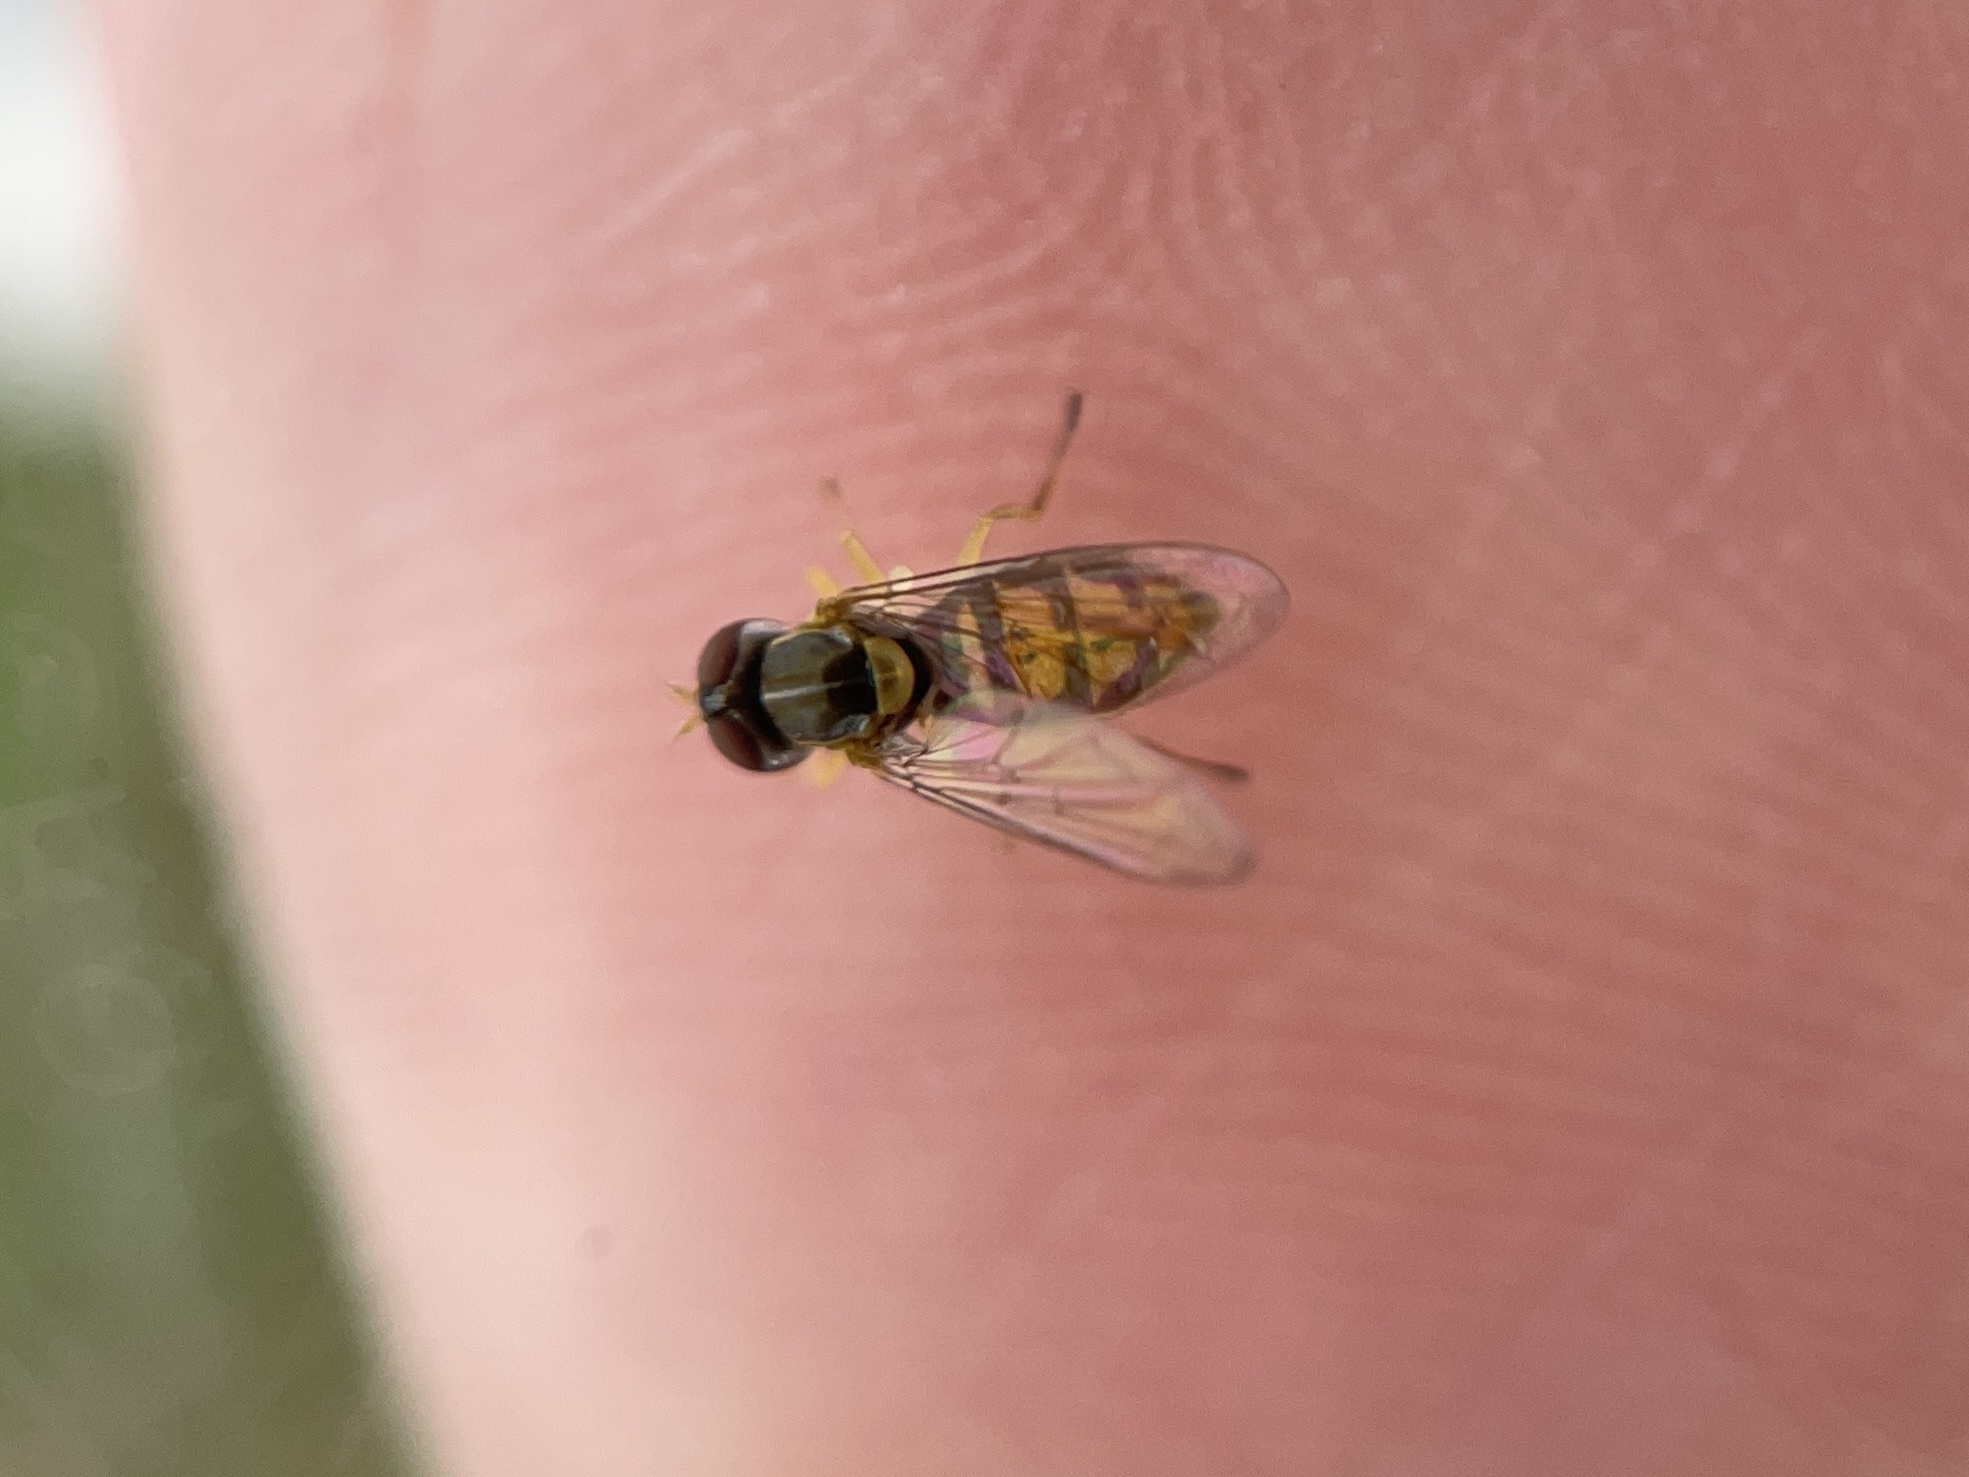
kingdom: Animalia
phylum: Arthropoda
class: Insecta
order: Diptera
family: Syrphidae
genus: Toxomerus
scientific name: Toxomerus marginatus
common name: Syrphid fly
